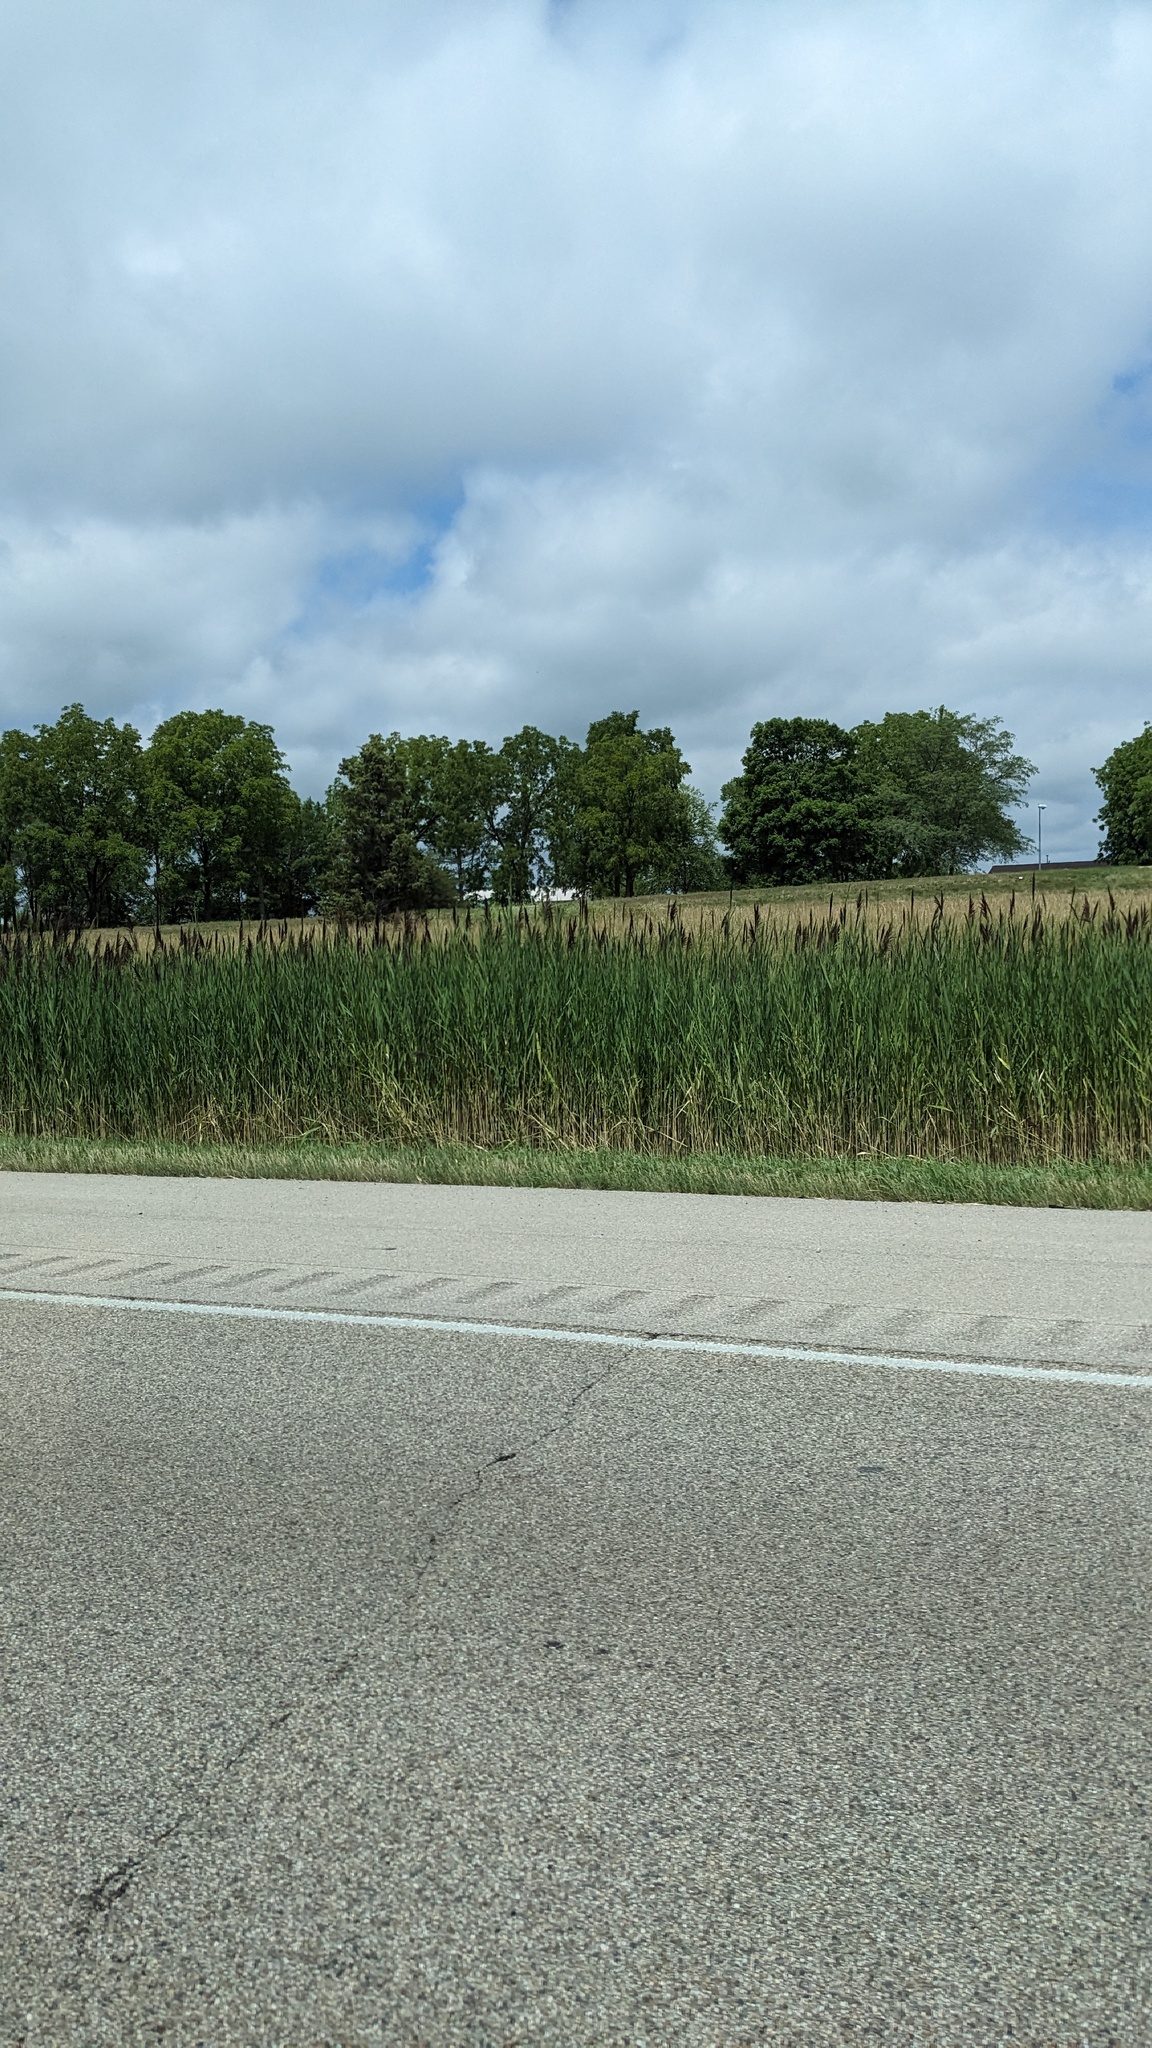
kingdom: Plantae
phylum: Tracheophyta
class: Liliopsida
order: Poales
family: Poaceae
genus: Phragmites
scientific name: Phragmites australis
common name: Common reed
